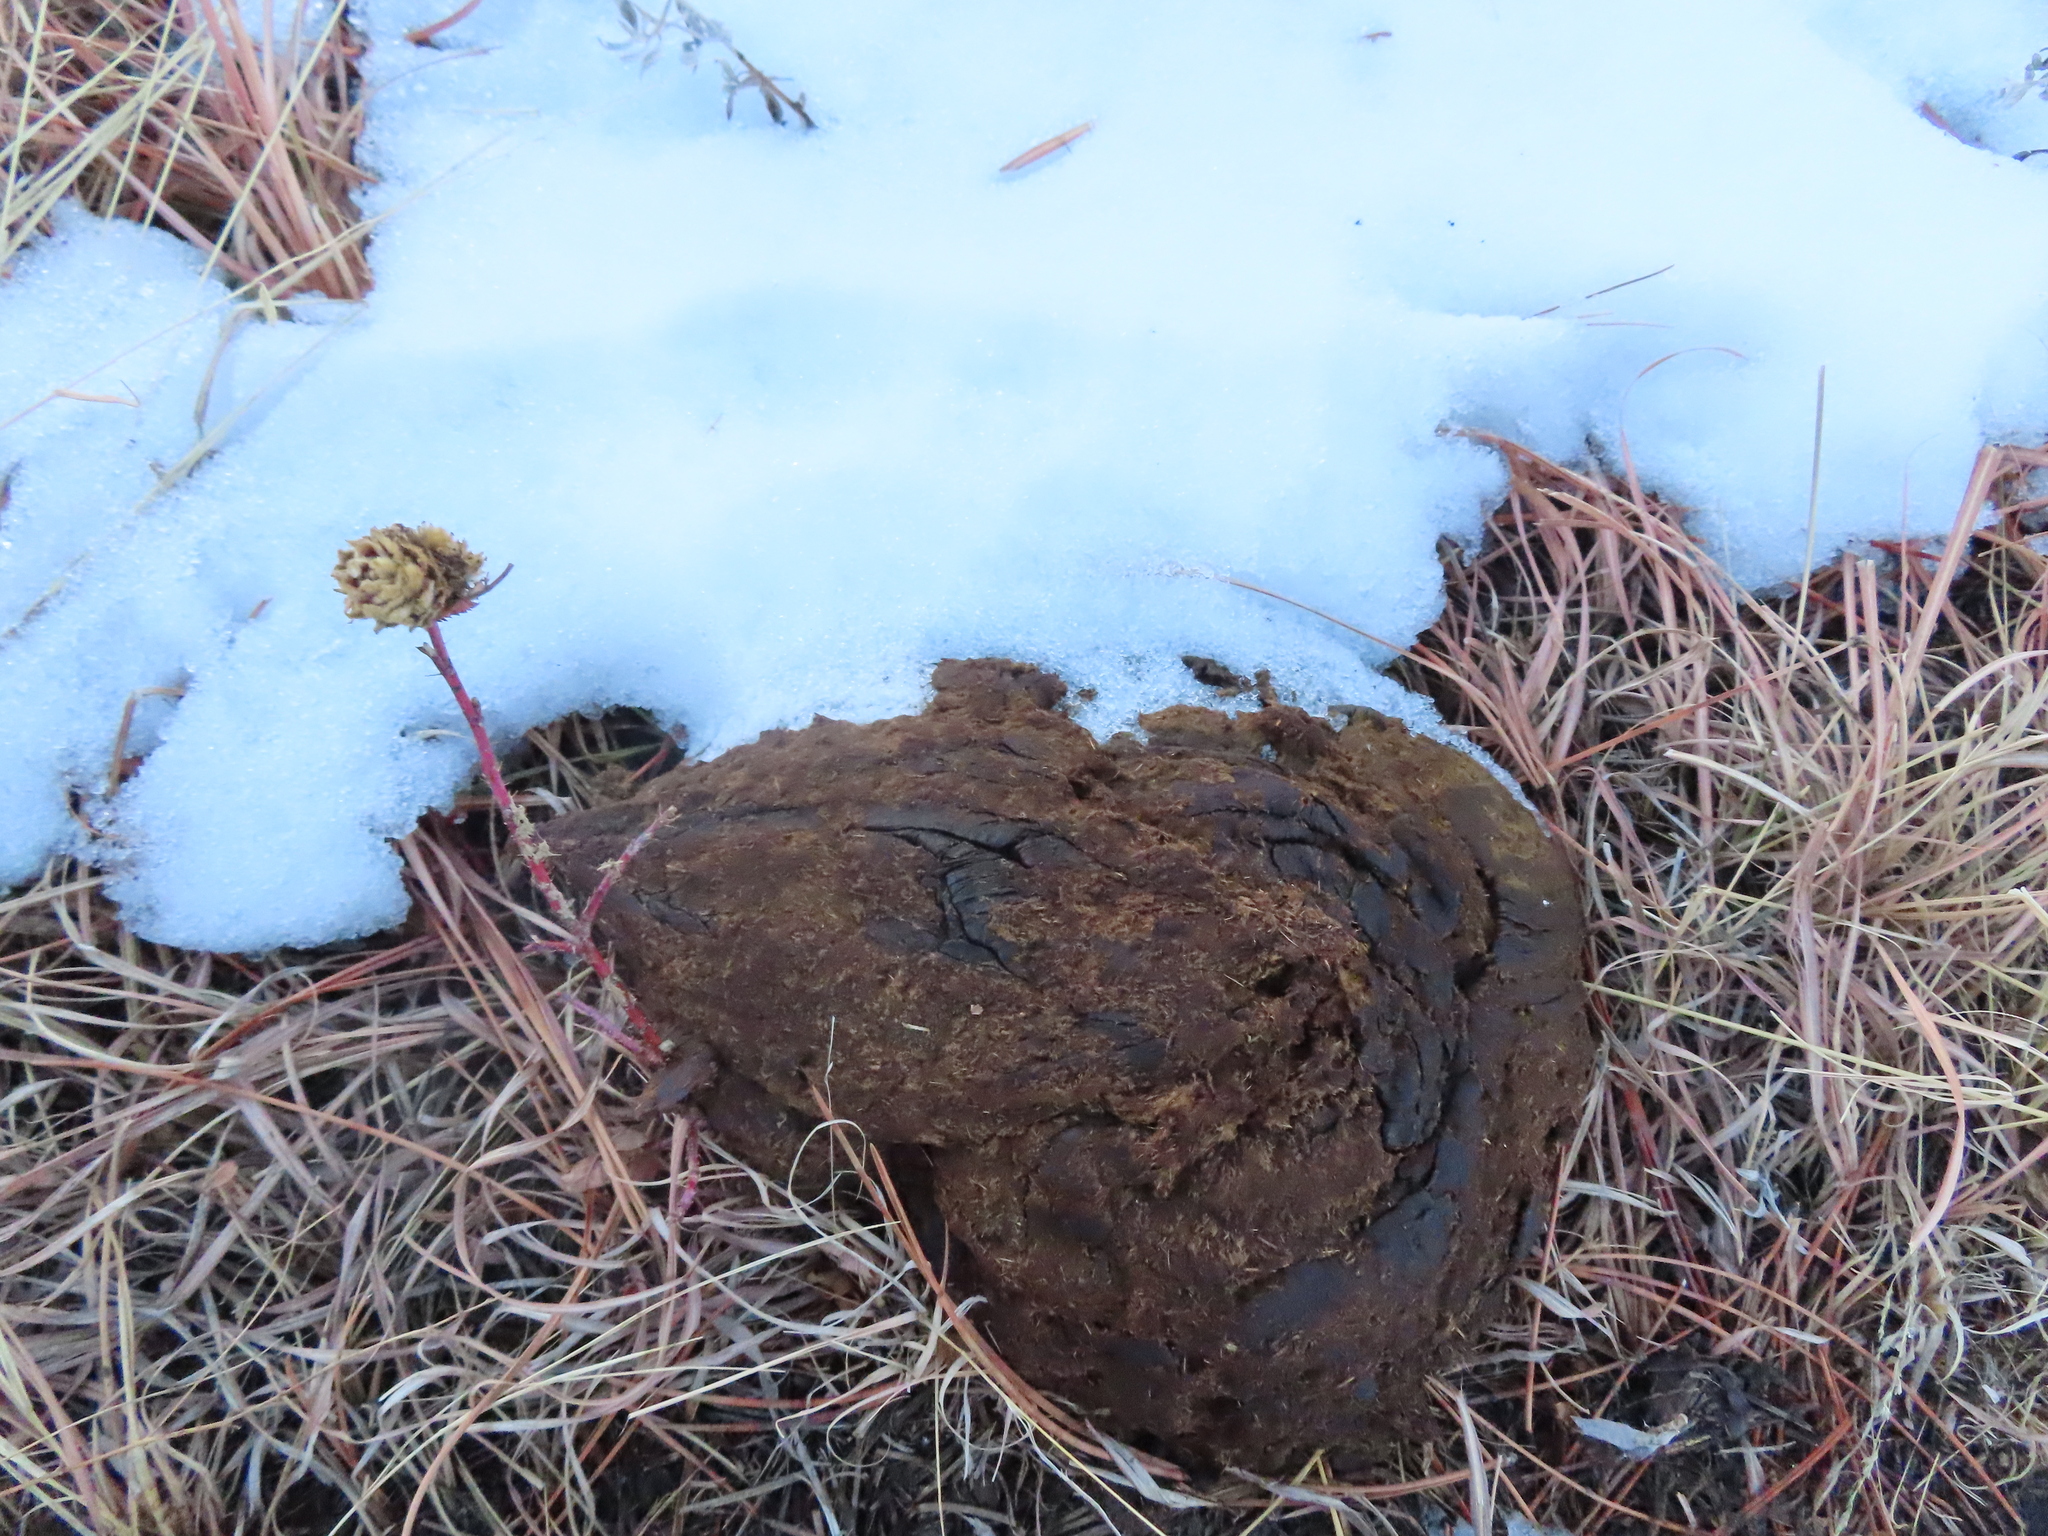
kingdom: Animalia
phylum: Chordata
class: Mammalia
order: Artiodactyla
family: Bovidae
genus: Bison
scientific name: Bison bison
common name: American bison
